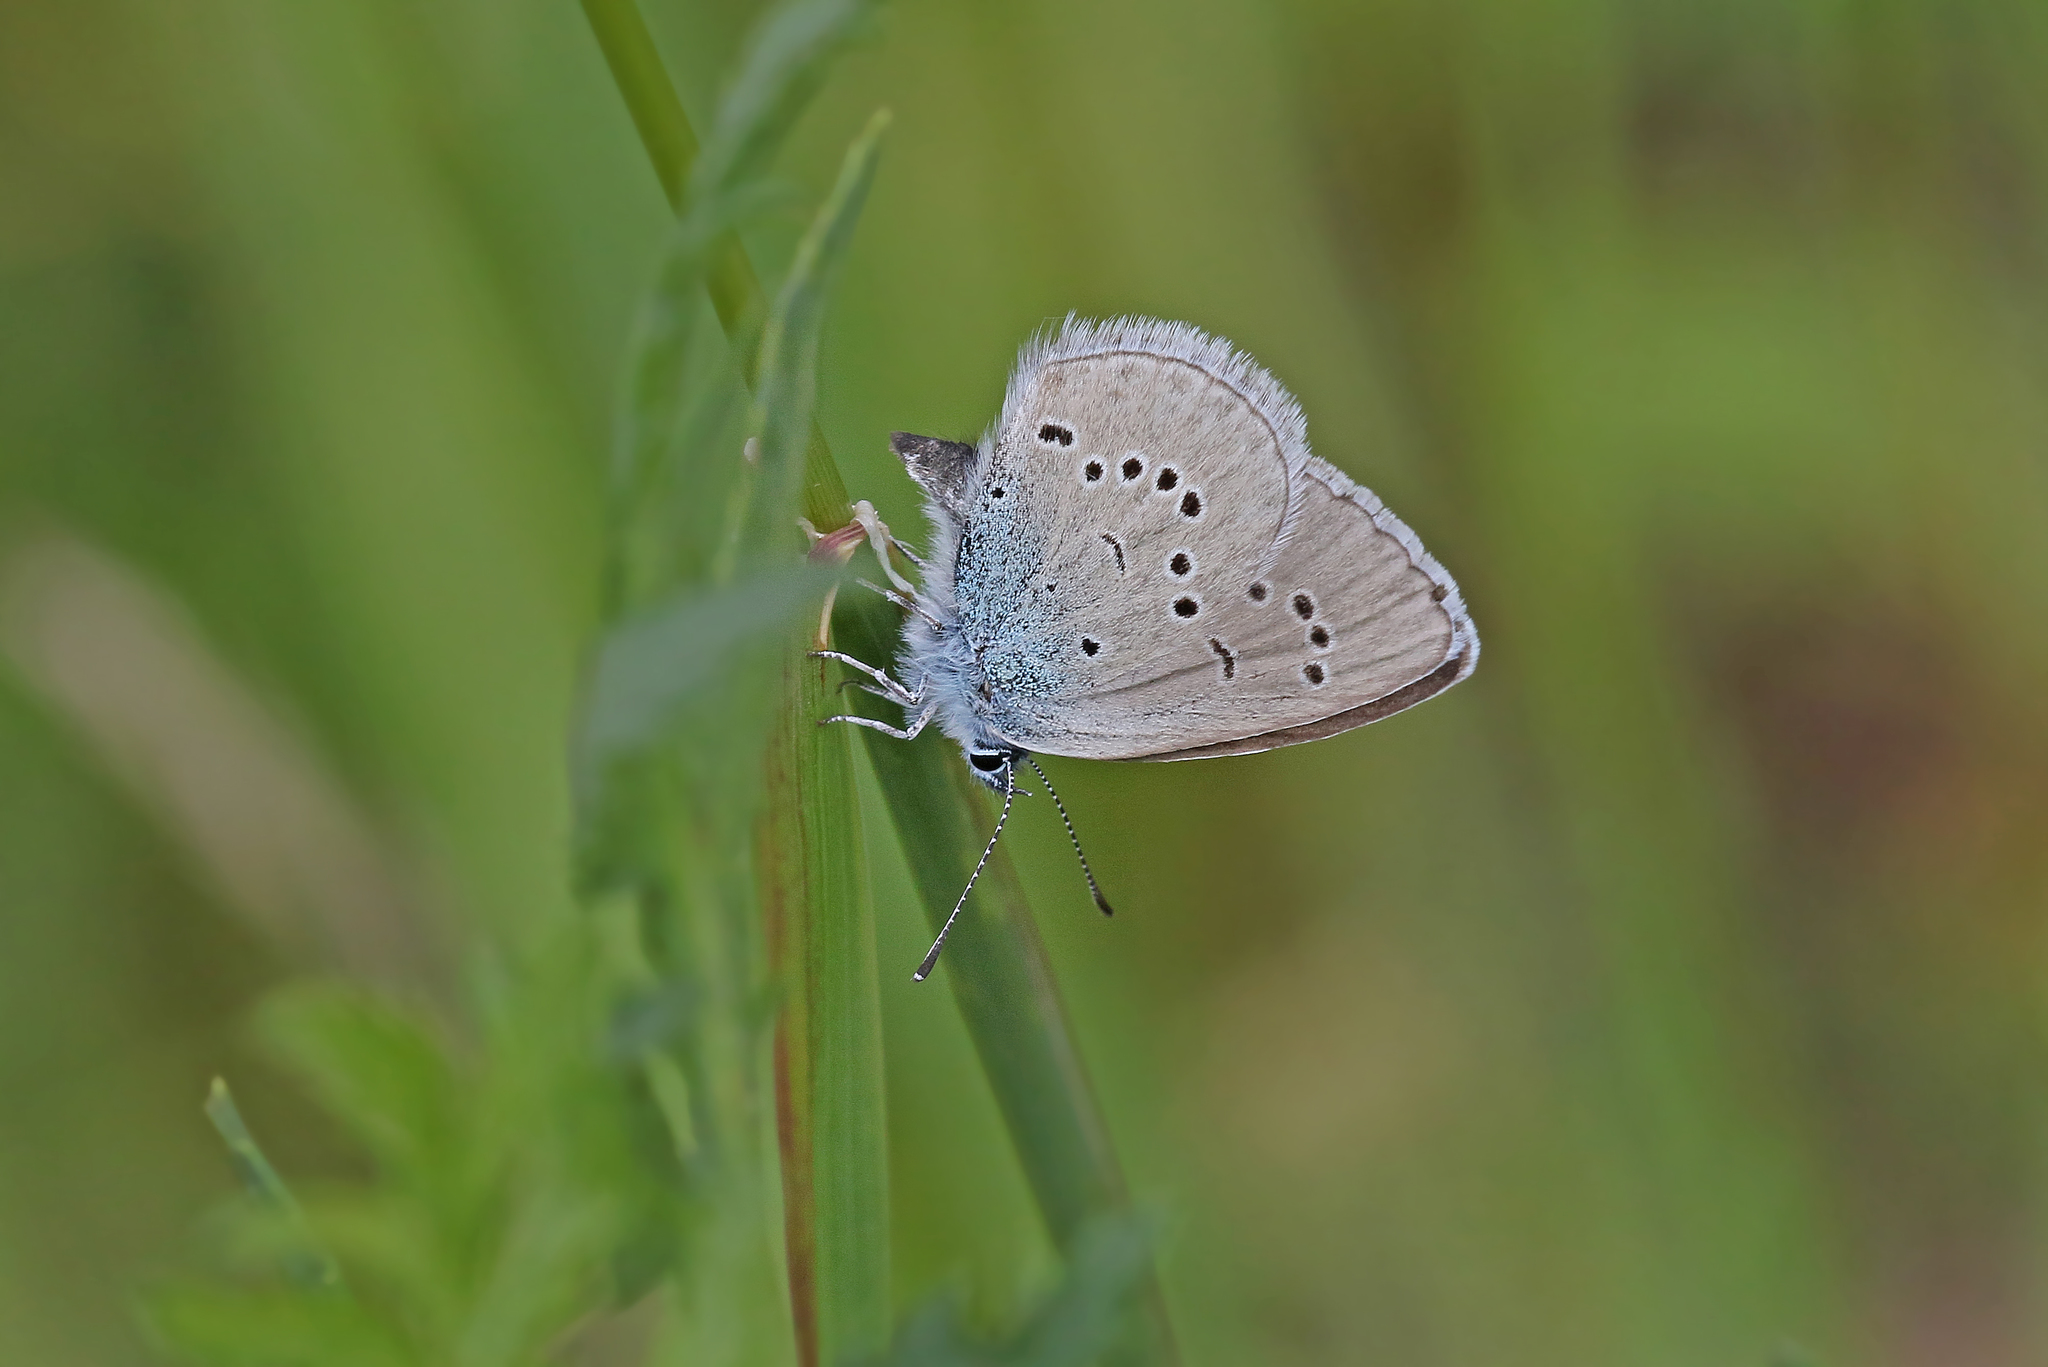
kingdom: Animalia
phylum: Arthropoda
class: Insecta
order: Lepidoptera
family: Lycaenidae
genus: Cyaniris
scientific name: Cyaniris semiargus
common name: Mazarine blue
